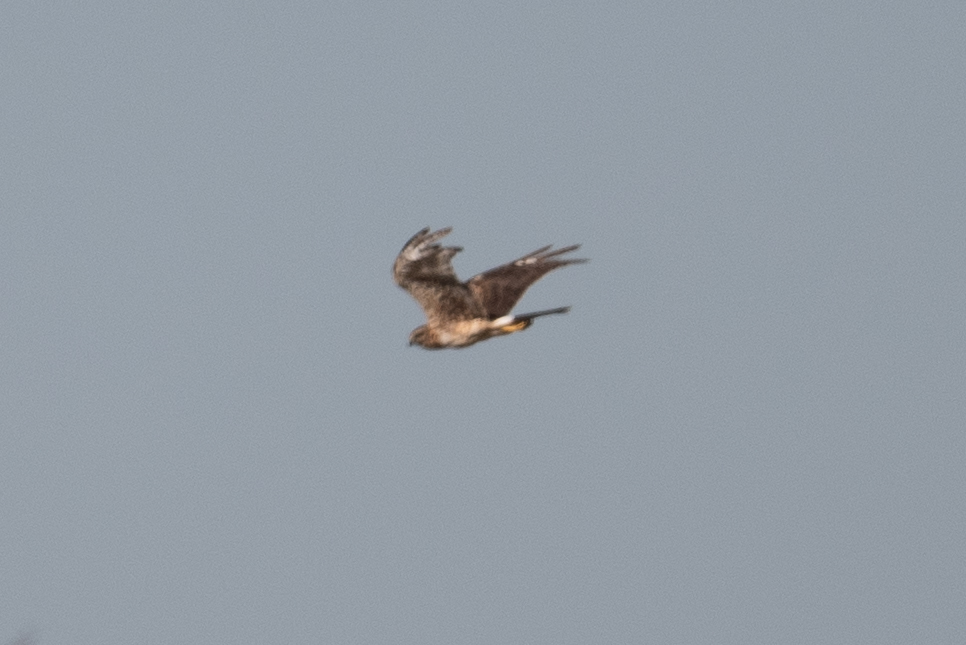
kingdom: Animalia
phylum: Chordata
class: Aves
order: Accipitriformes
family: Accipitridae
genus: Circus
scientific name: Circus cyaneus
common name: Hen harrier
